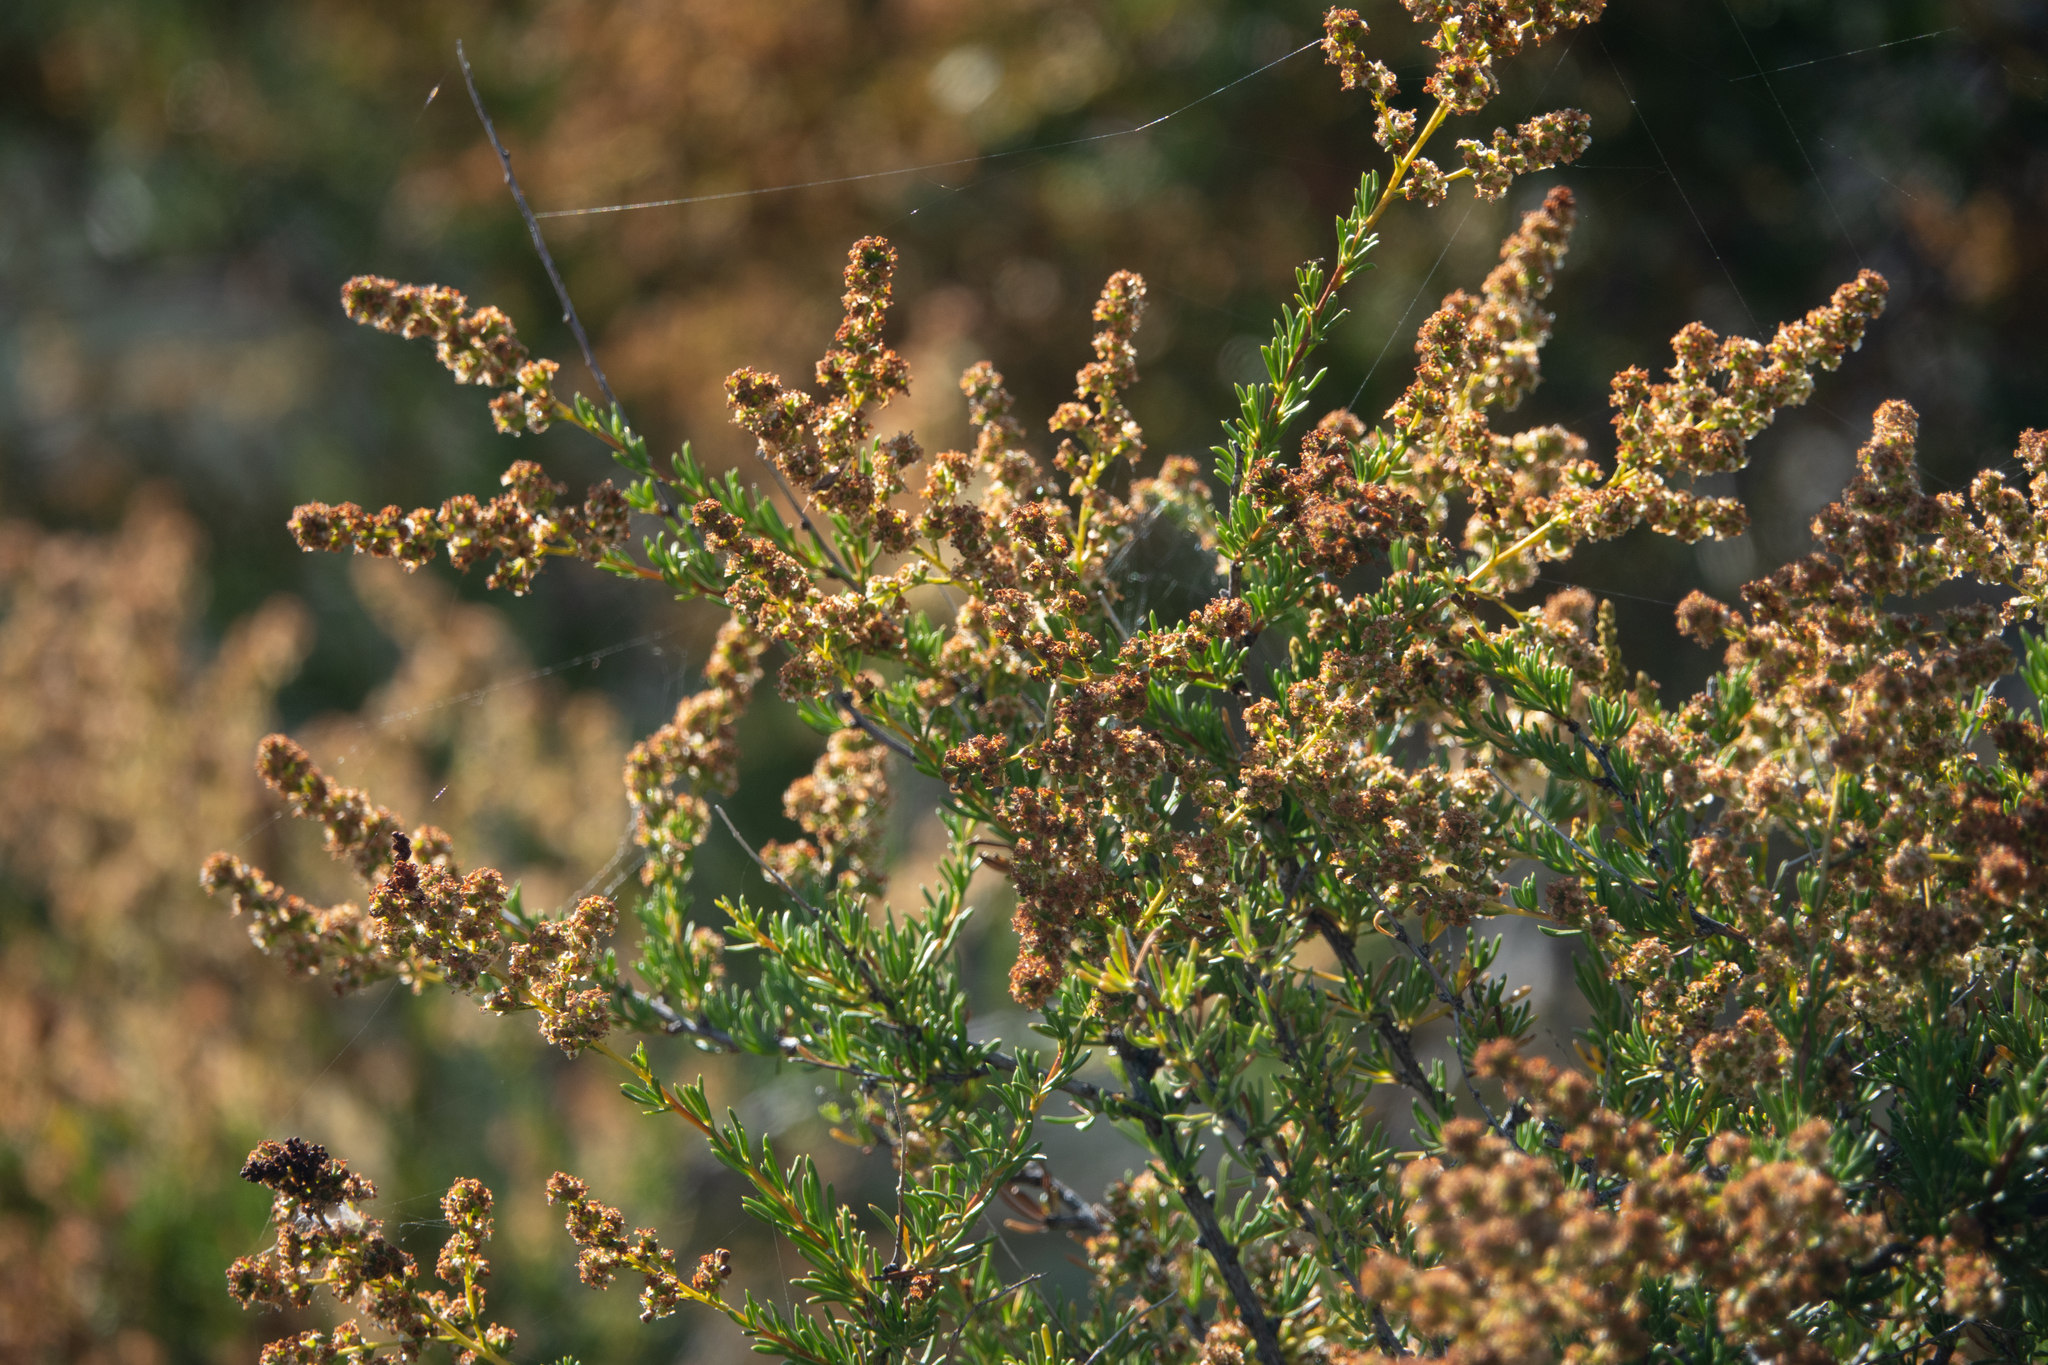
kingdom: Plantae
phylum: Tracheophyta
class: Magnoliopsida
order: Rosales
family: Rosaceae
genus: Adenostoma
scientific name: Adenostoma fasciculatum
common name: Chamise
